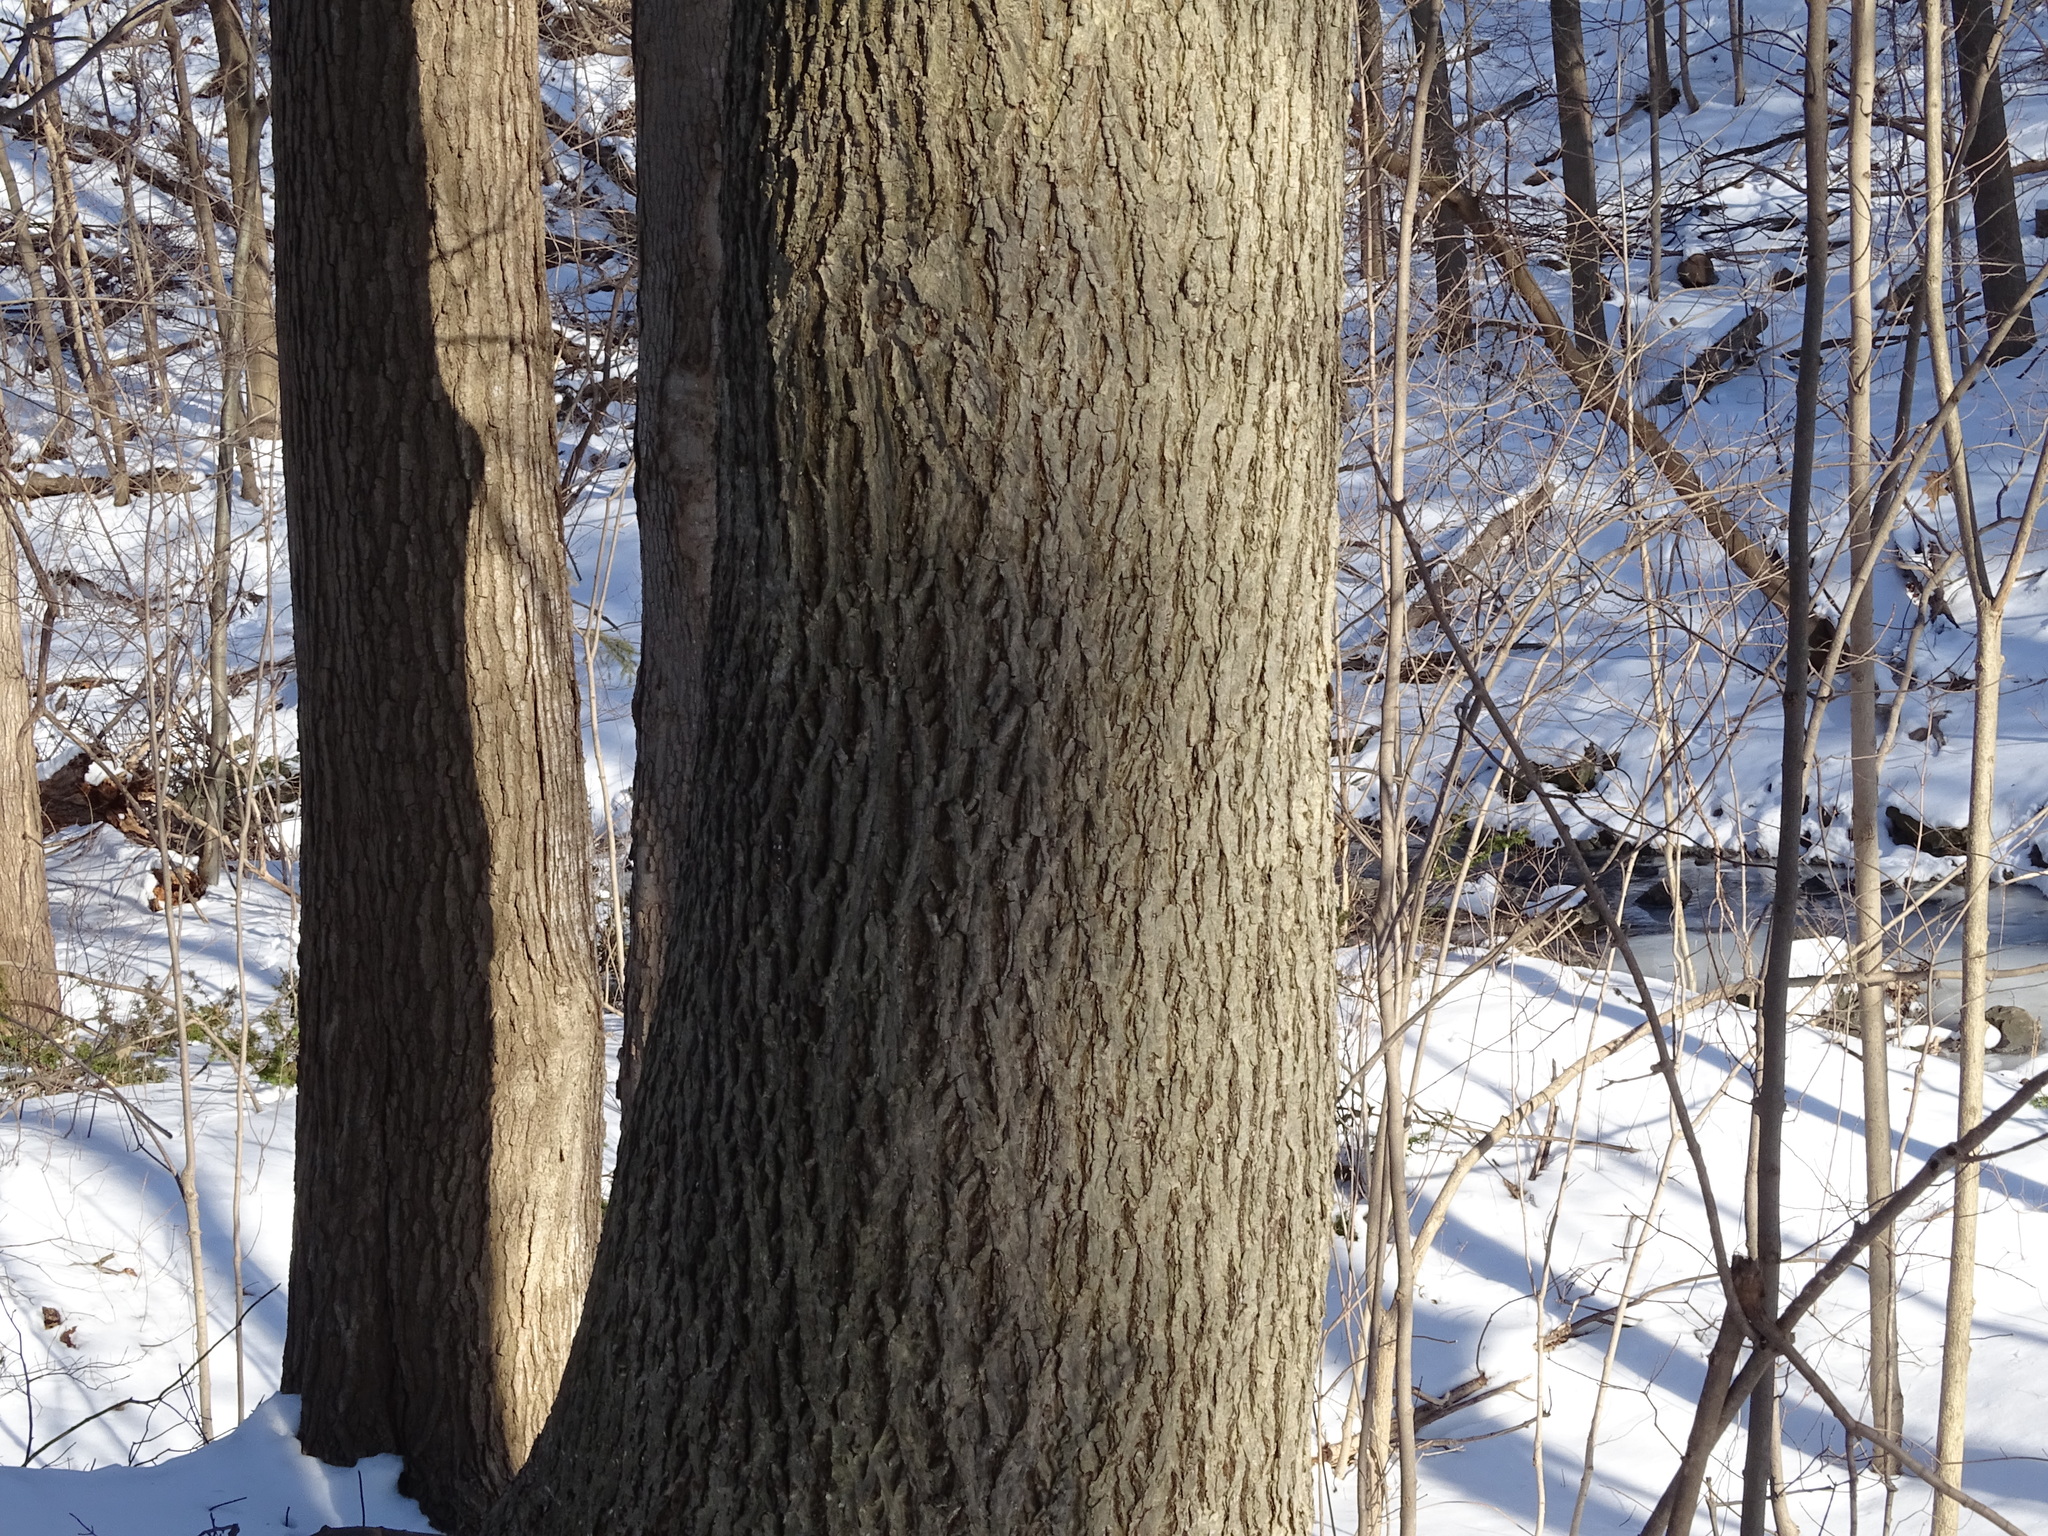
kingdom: Plantae
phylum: Tracheophyta
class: Magnoliopsida
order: Fagales
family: Juglandaceae
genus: Carya
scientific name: Carya cordiformis
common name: Bitternut hickory
